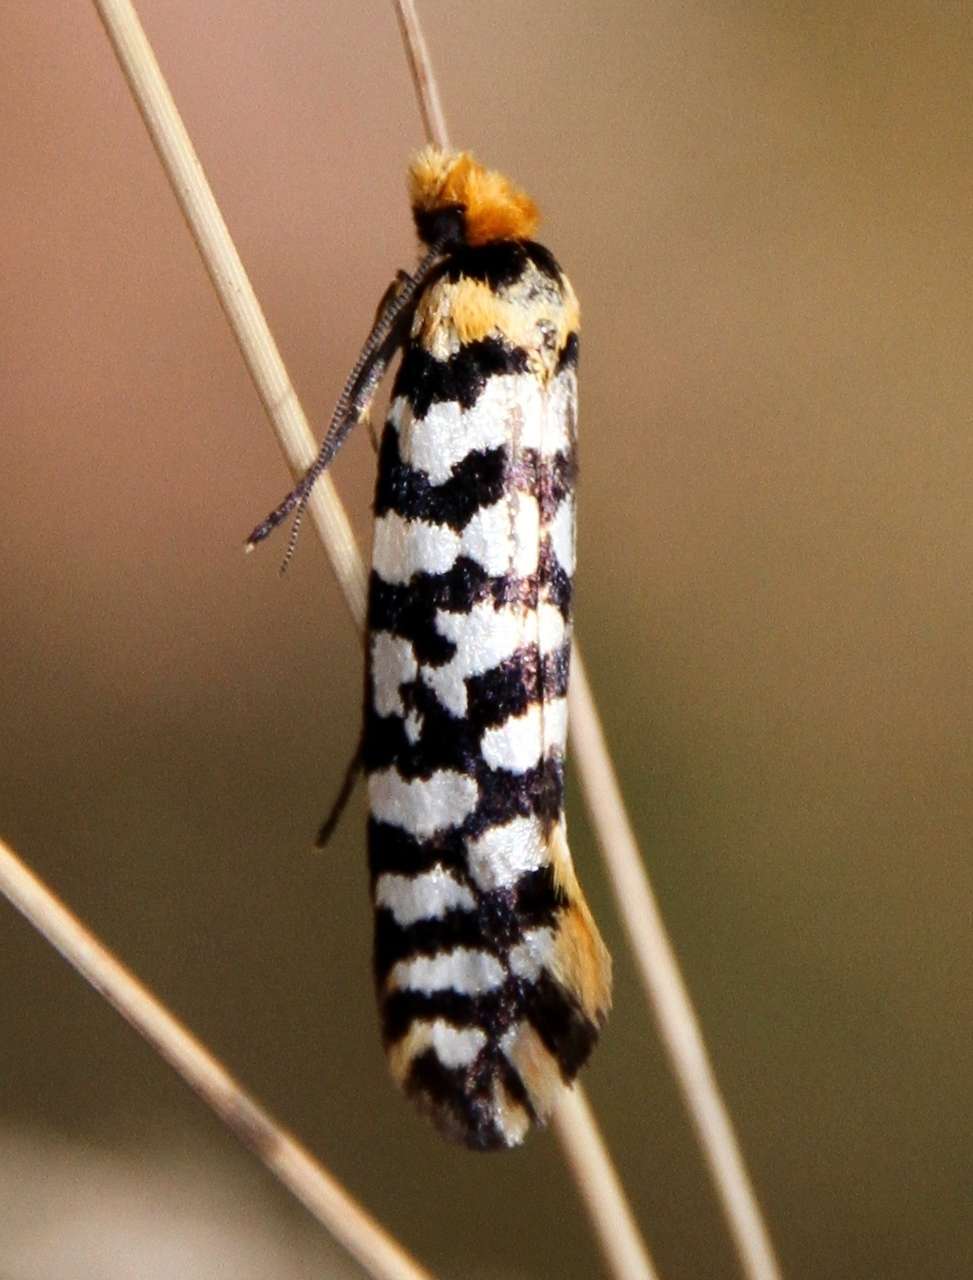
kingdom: Animalia
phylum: Arthropoda
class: Insecta
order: Lepidoptera
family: Tineidae
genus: Moerarchis
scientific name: Moerarchis australasiella
